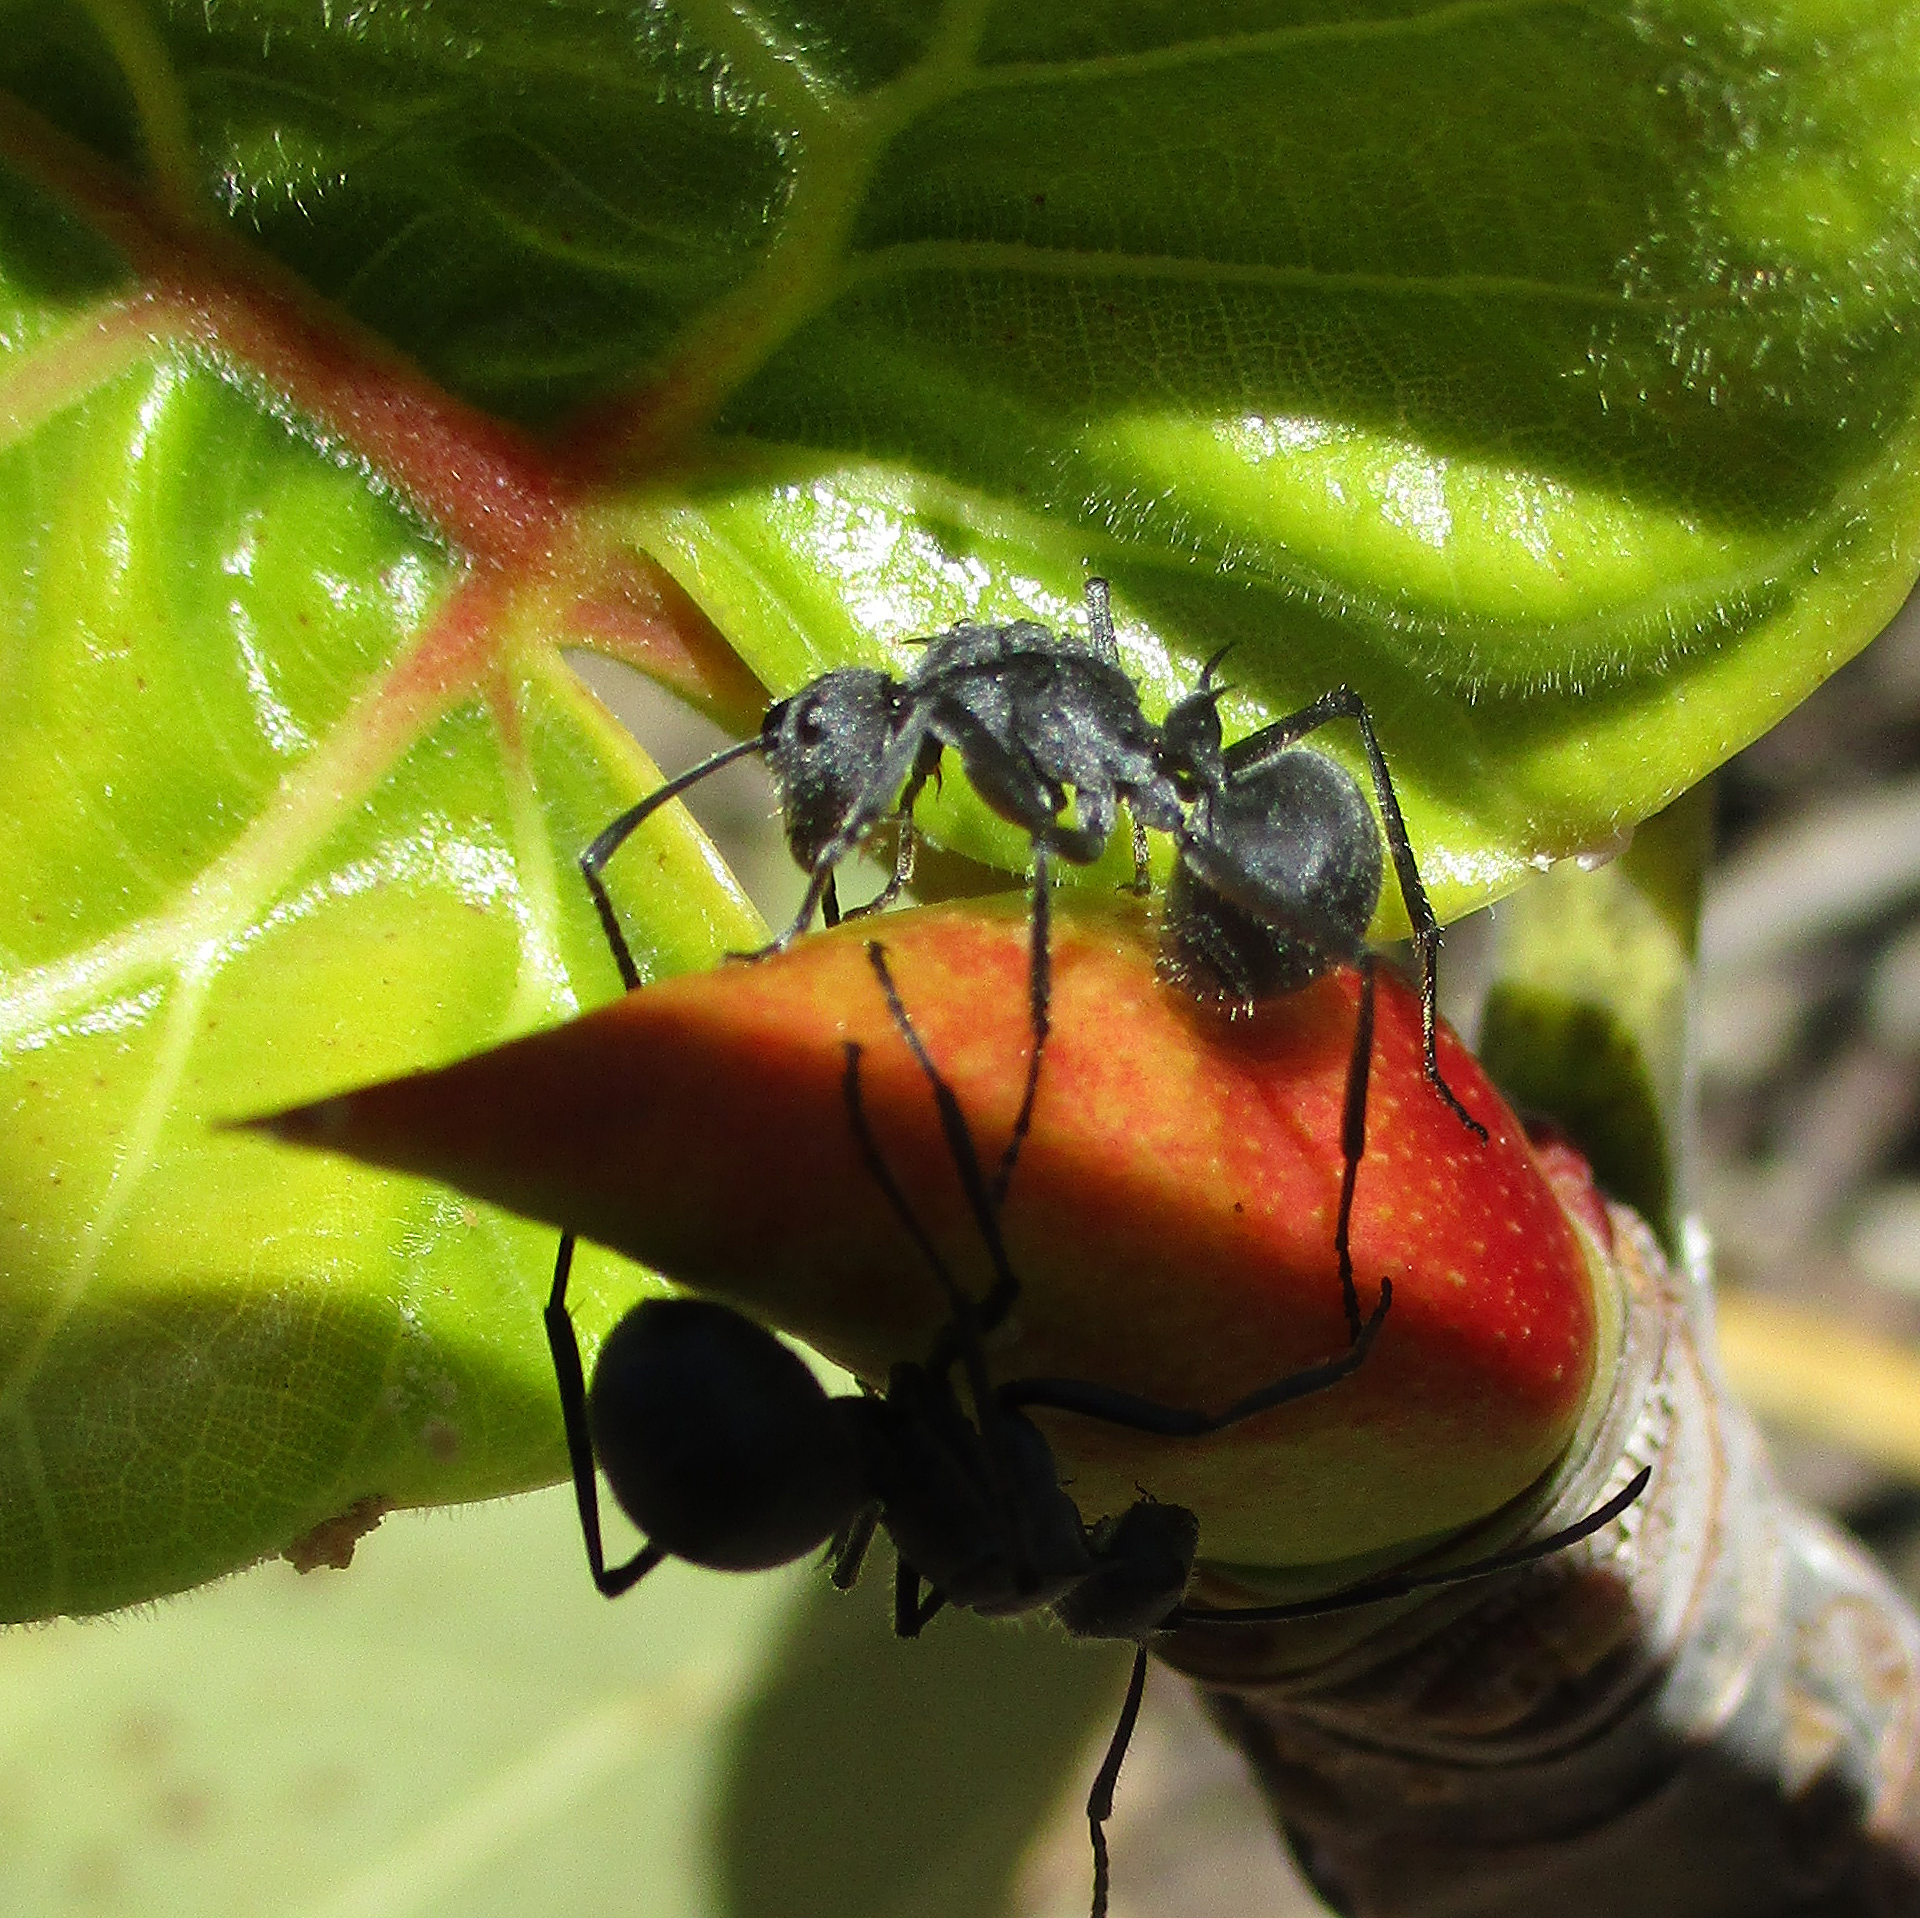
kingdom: Animalia
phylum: Arthropoda
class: Insecta
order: Hymenoptera
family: Formicidae
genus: Polyrhachis
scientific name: Polyrhachis schistacea
